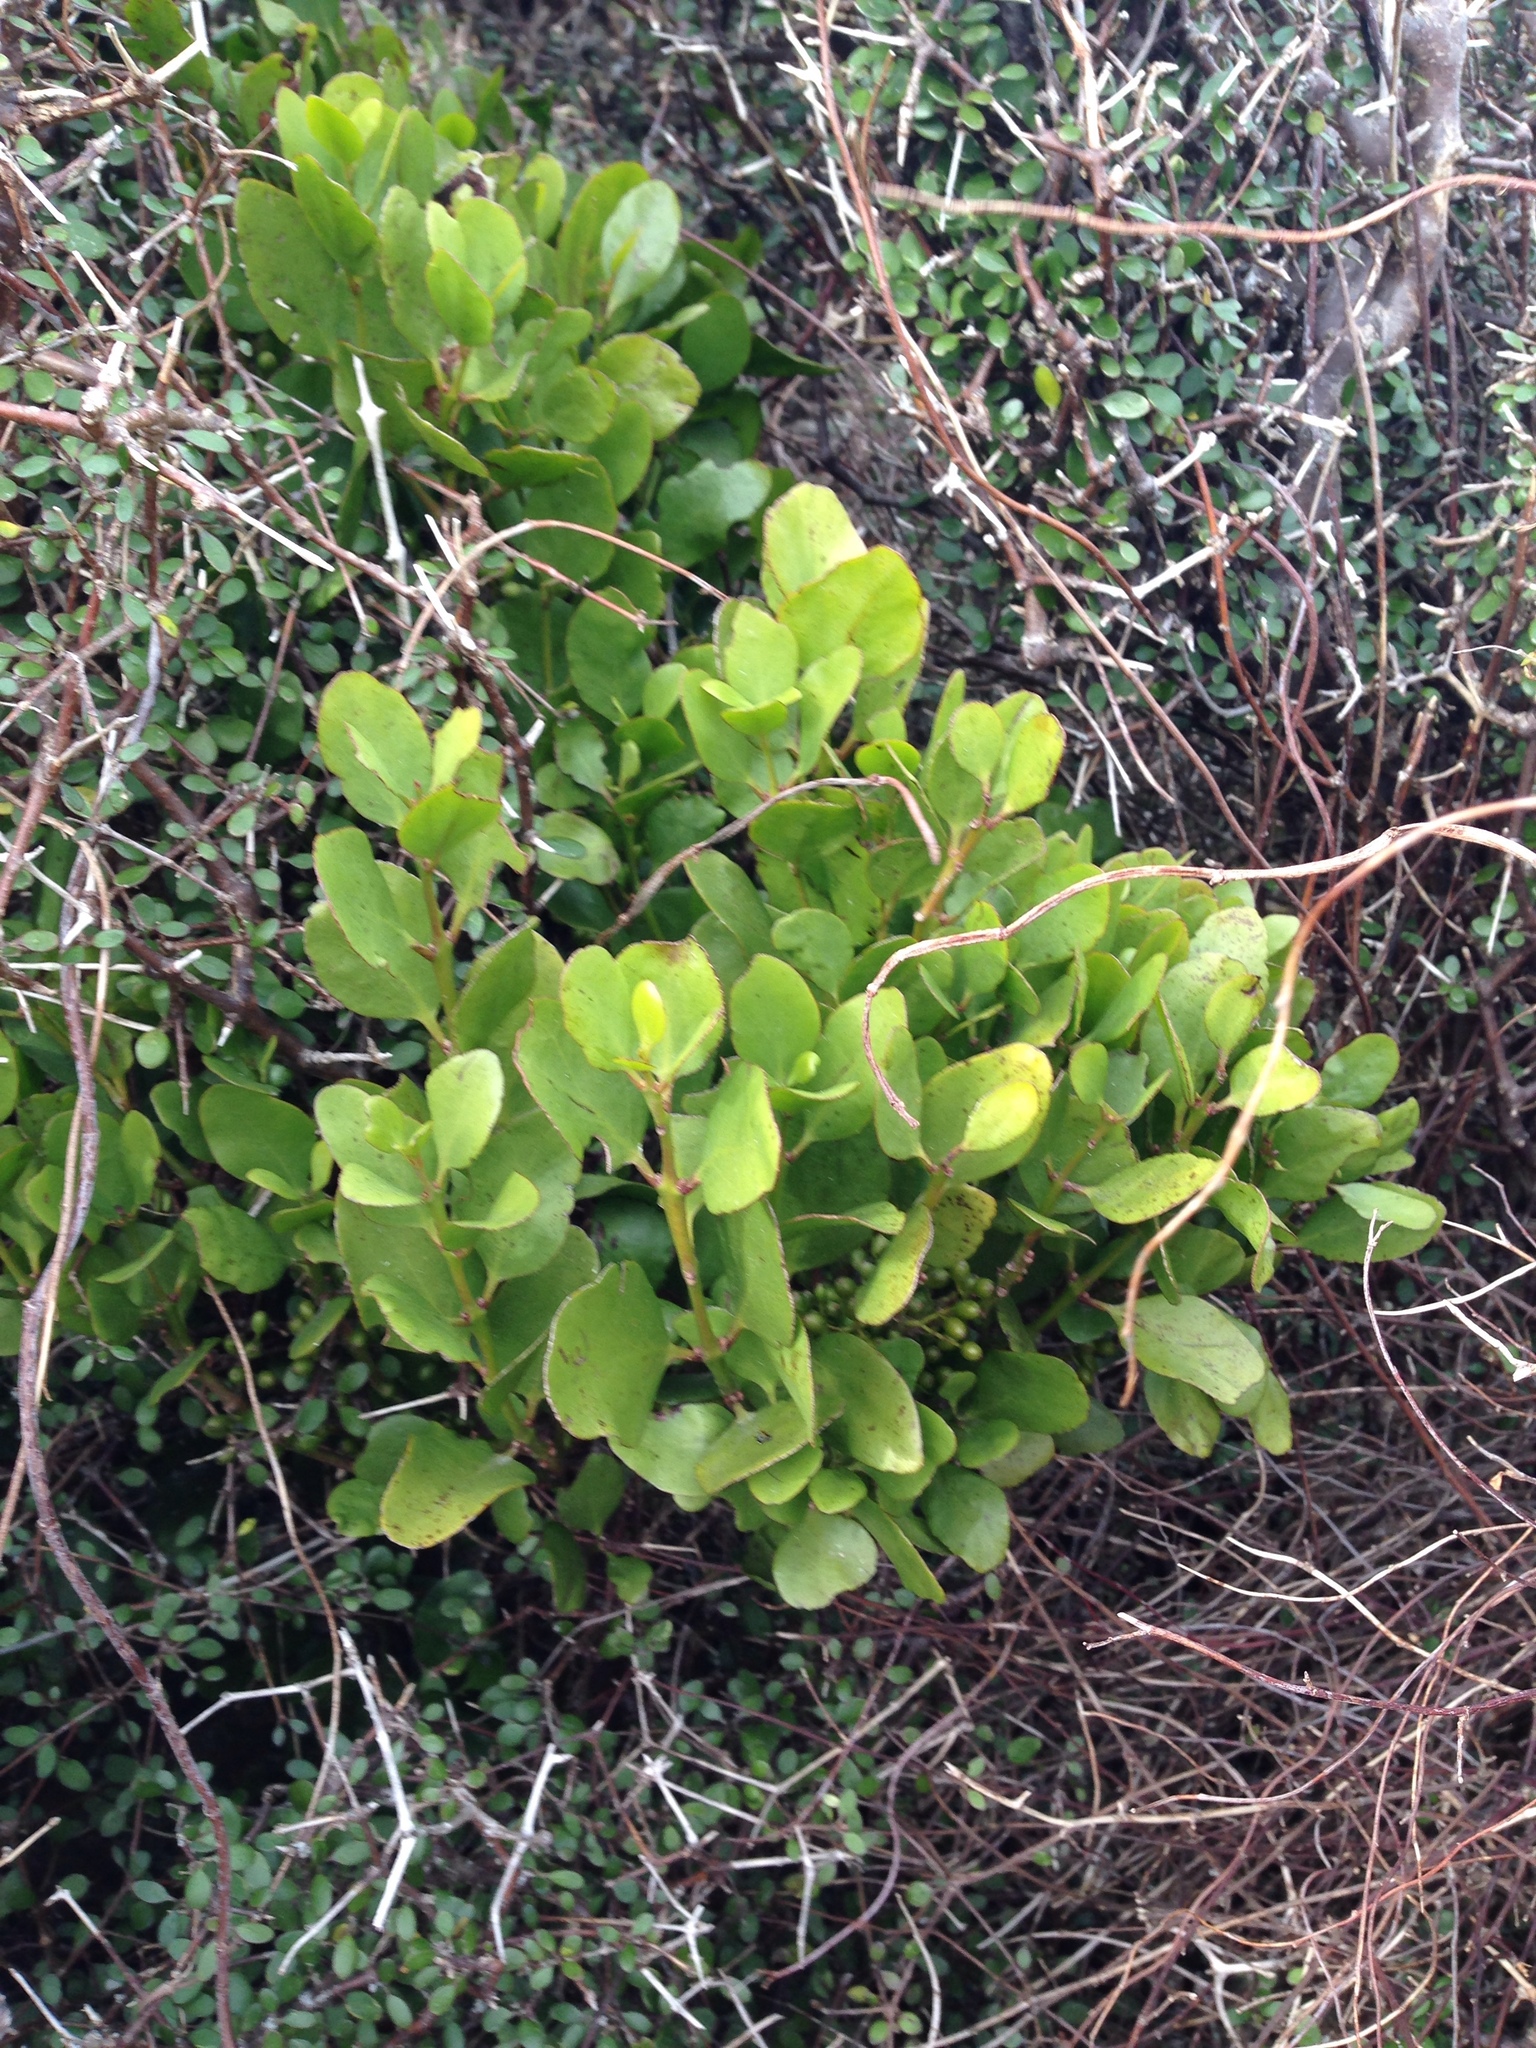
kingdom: Plantae
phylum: Tracheophyta
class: Magnoliopsida
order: Santalales
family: Loranthaceae
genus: Ileostylus
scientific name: Ileostylus micranthus
